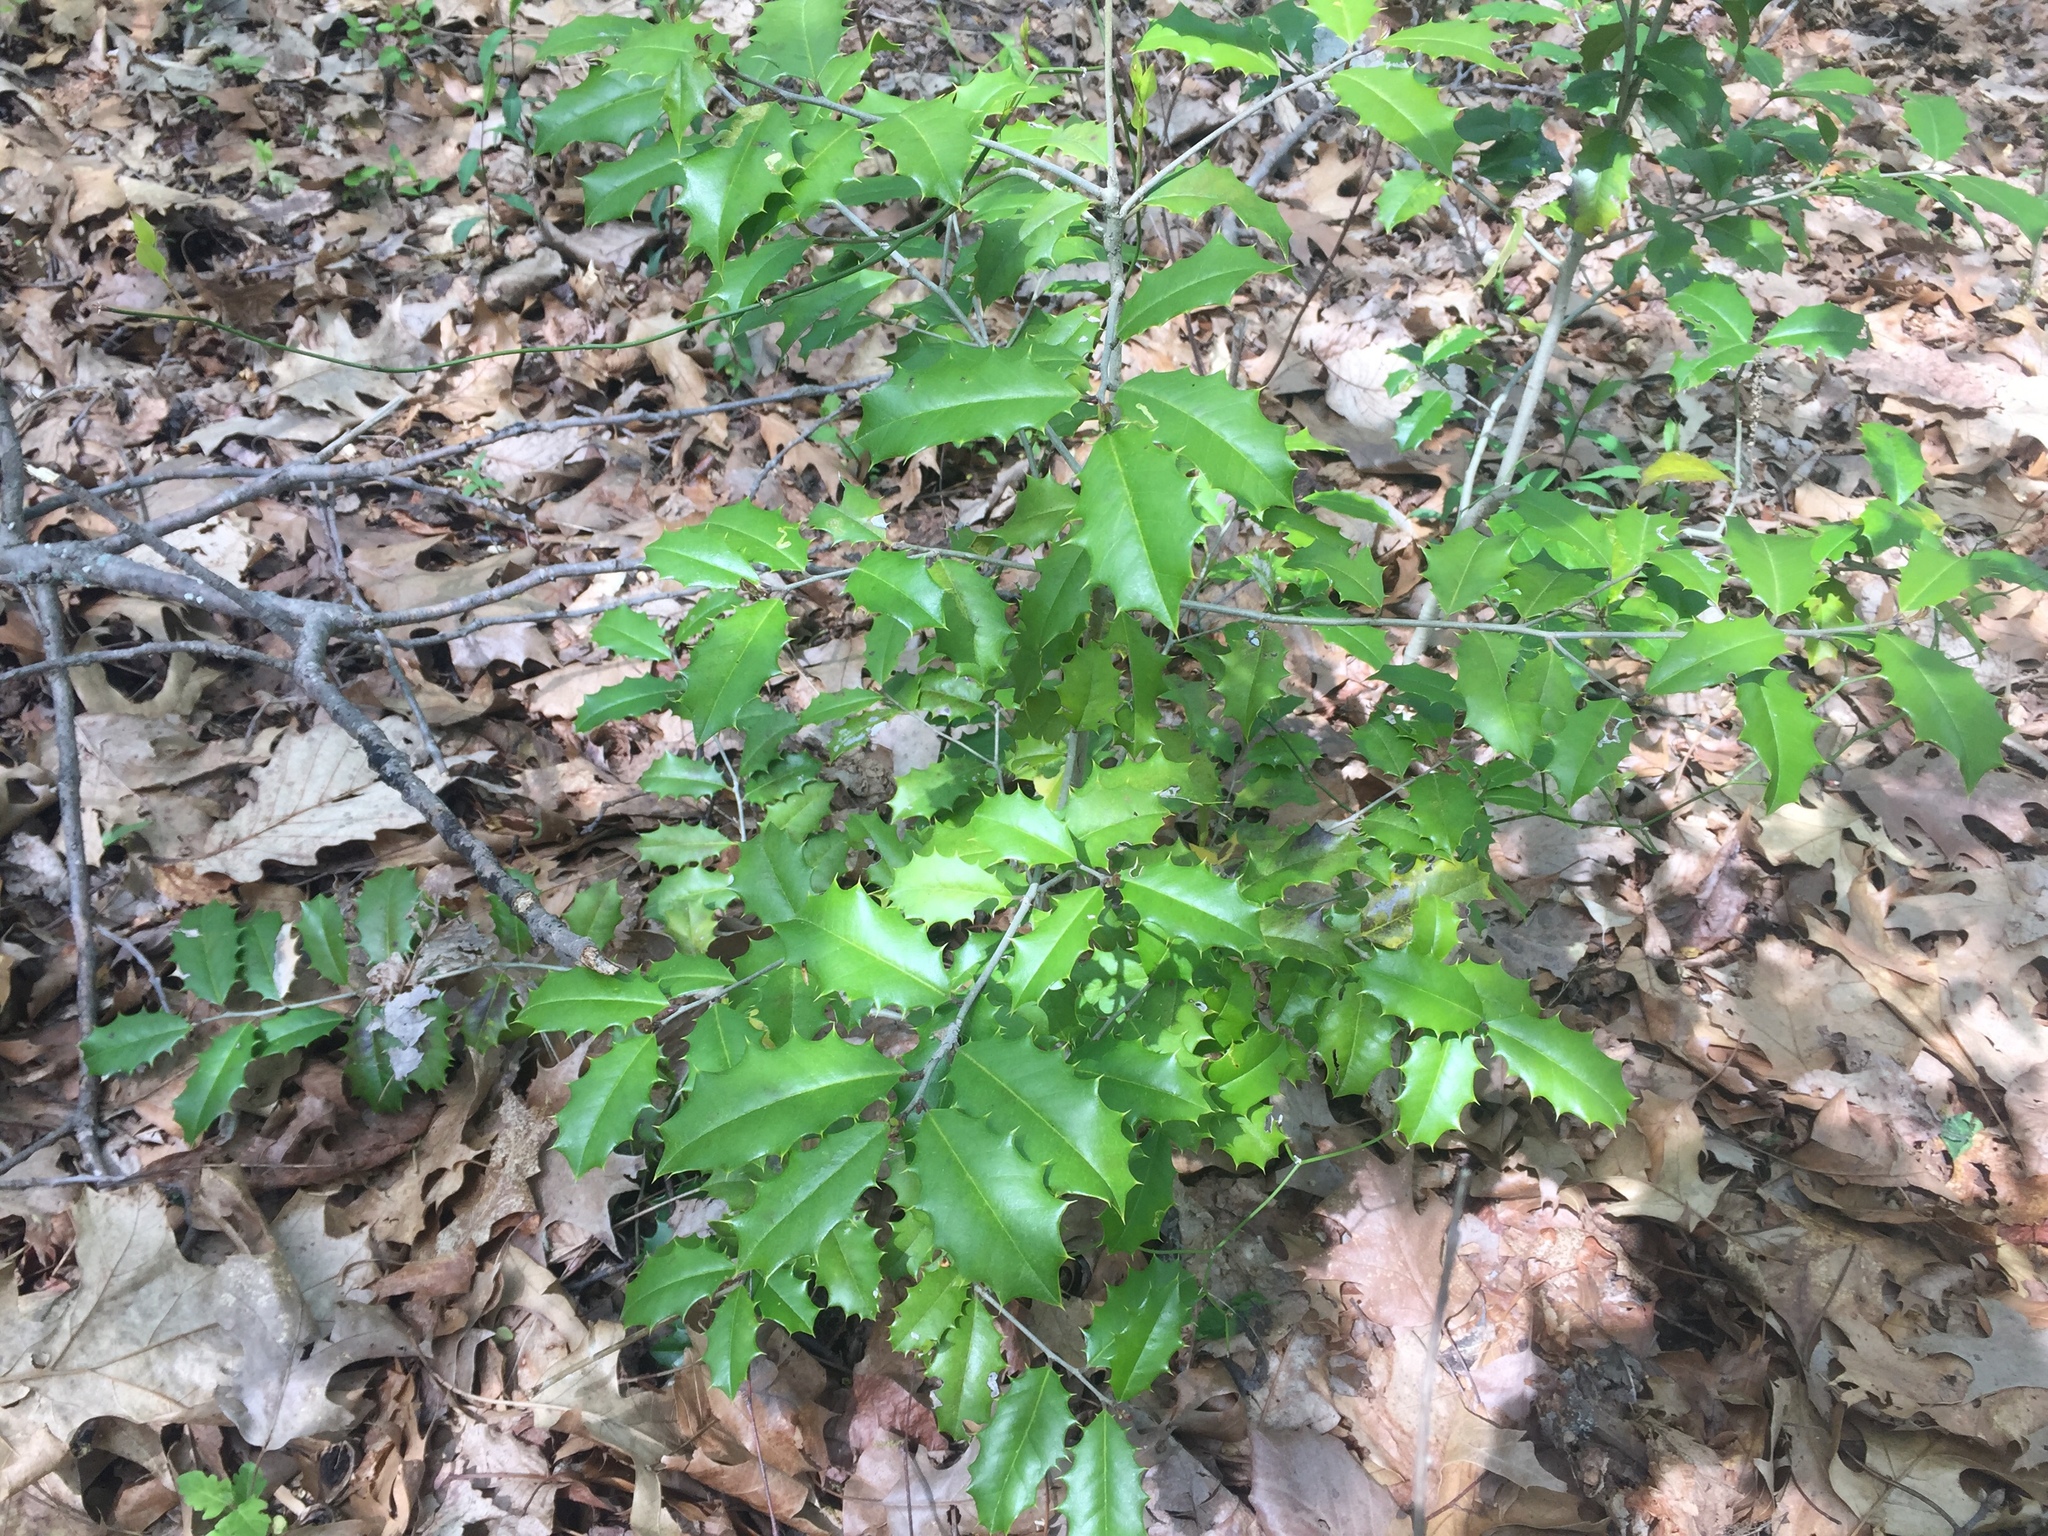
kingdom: Plantae
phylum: Tracheophyta
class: Magnoliopsida
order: Aquifoliales
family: Aquifoliaceae
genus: Ilex
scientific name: Ilex opaca
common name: American holly
